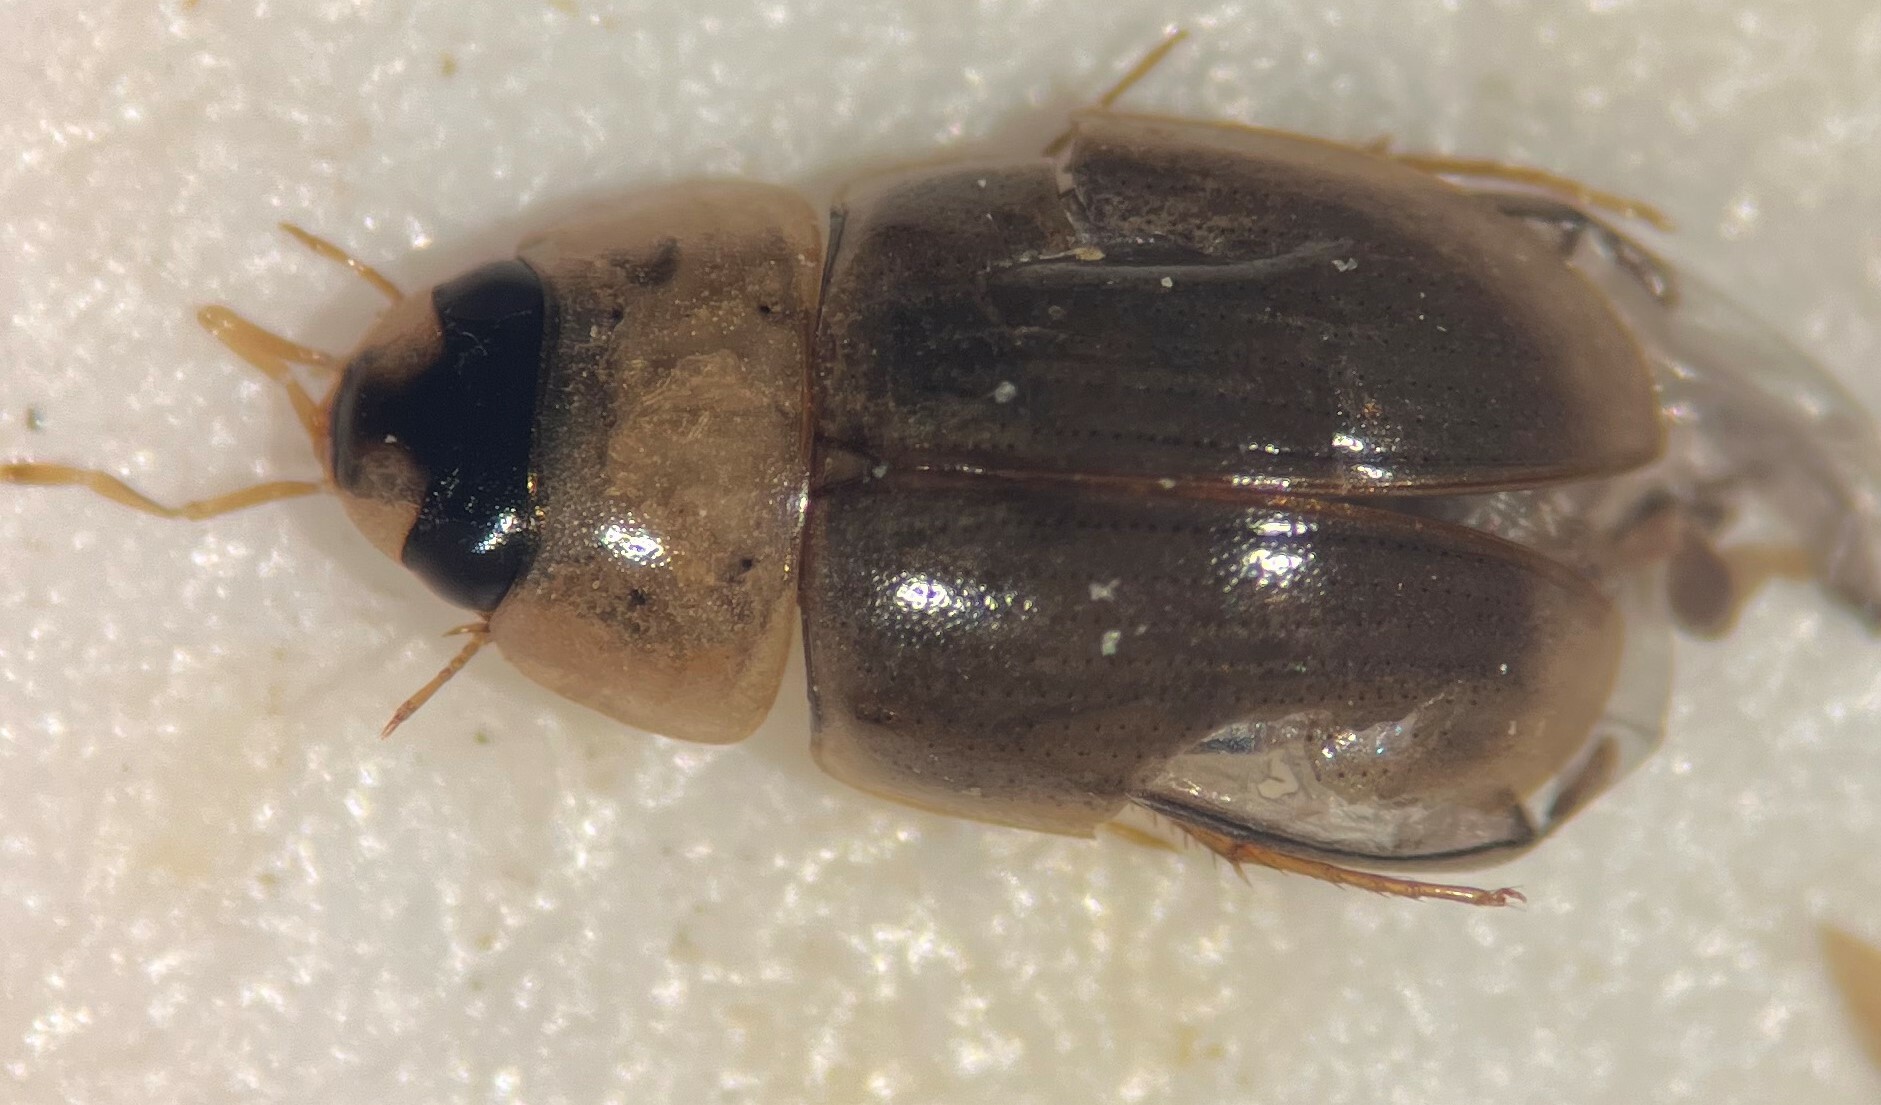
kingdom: Animalia
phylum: Arthropoda
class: Insecta
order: Coleoptera
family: Hydrophilidae
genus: Enochrus
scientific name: Enochrus pygmaeus
